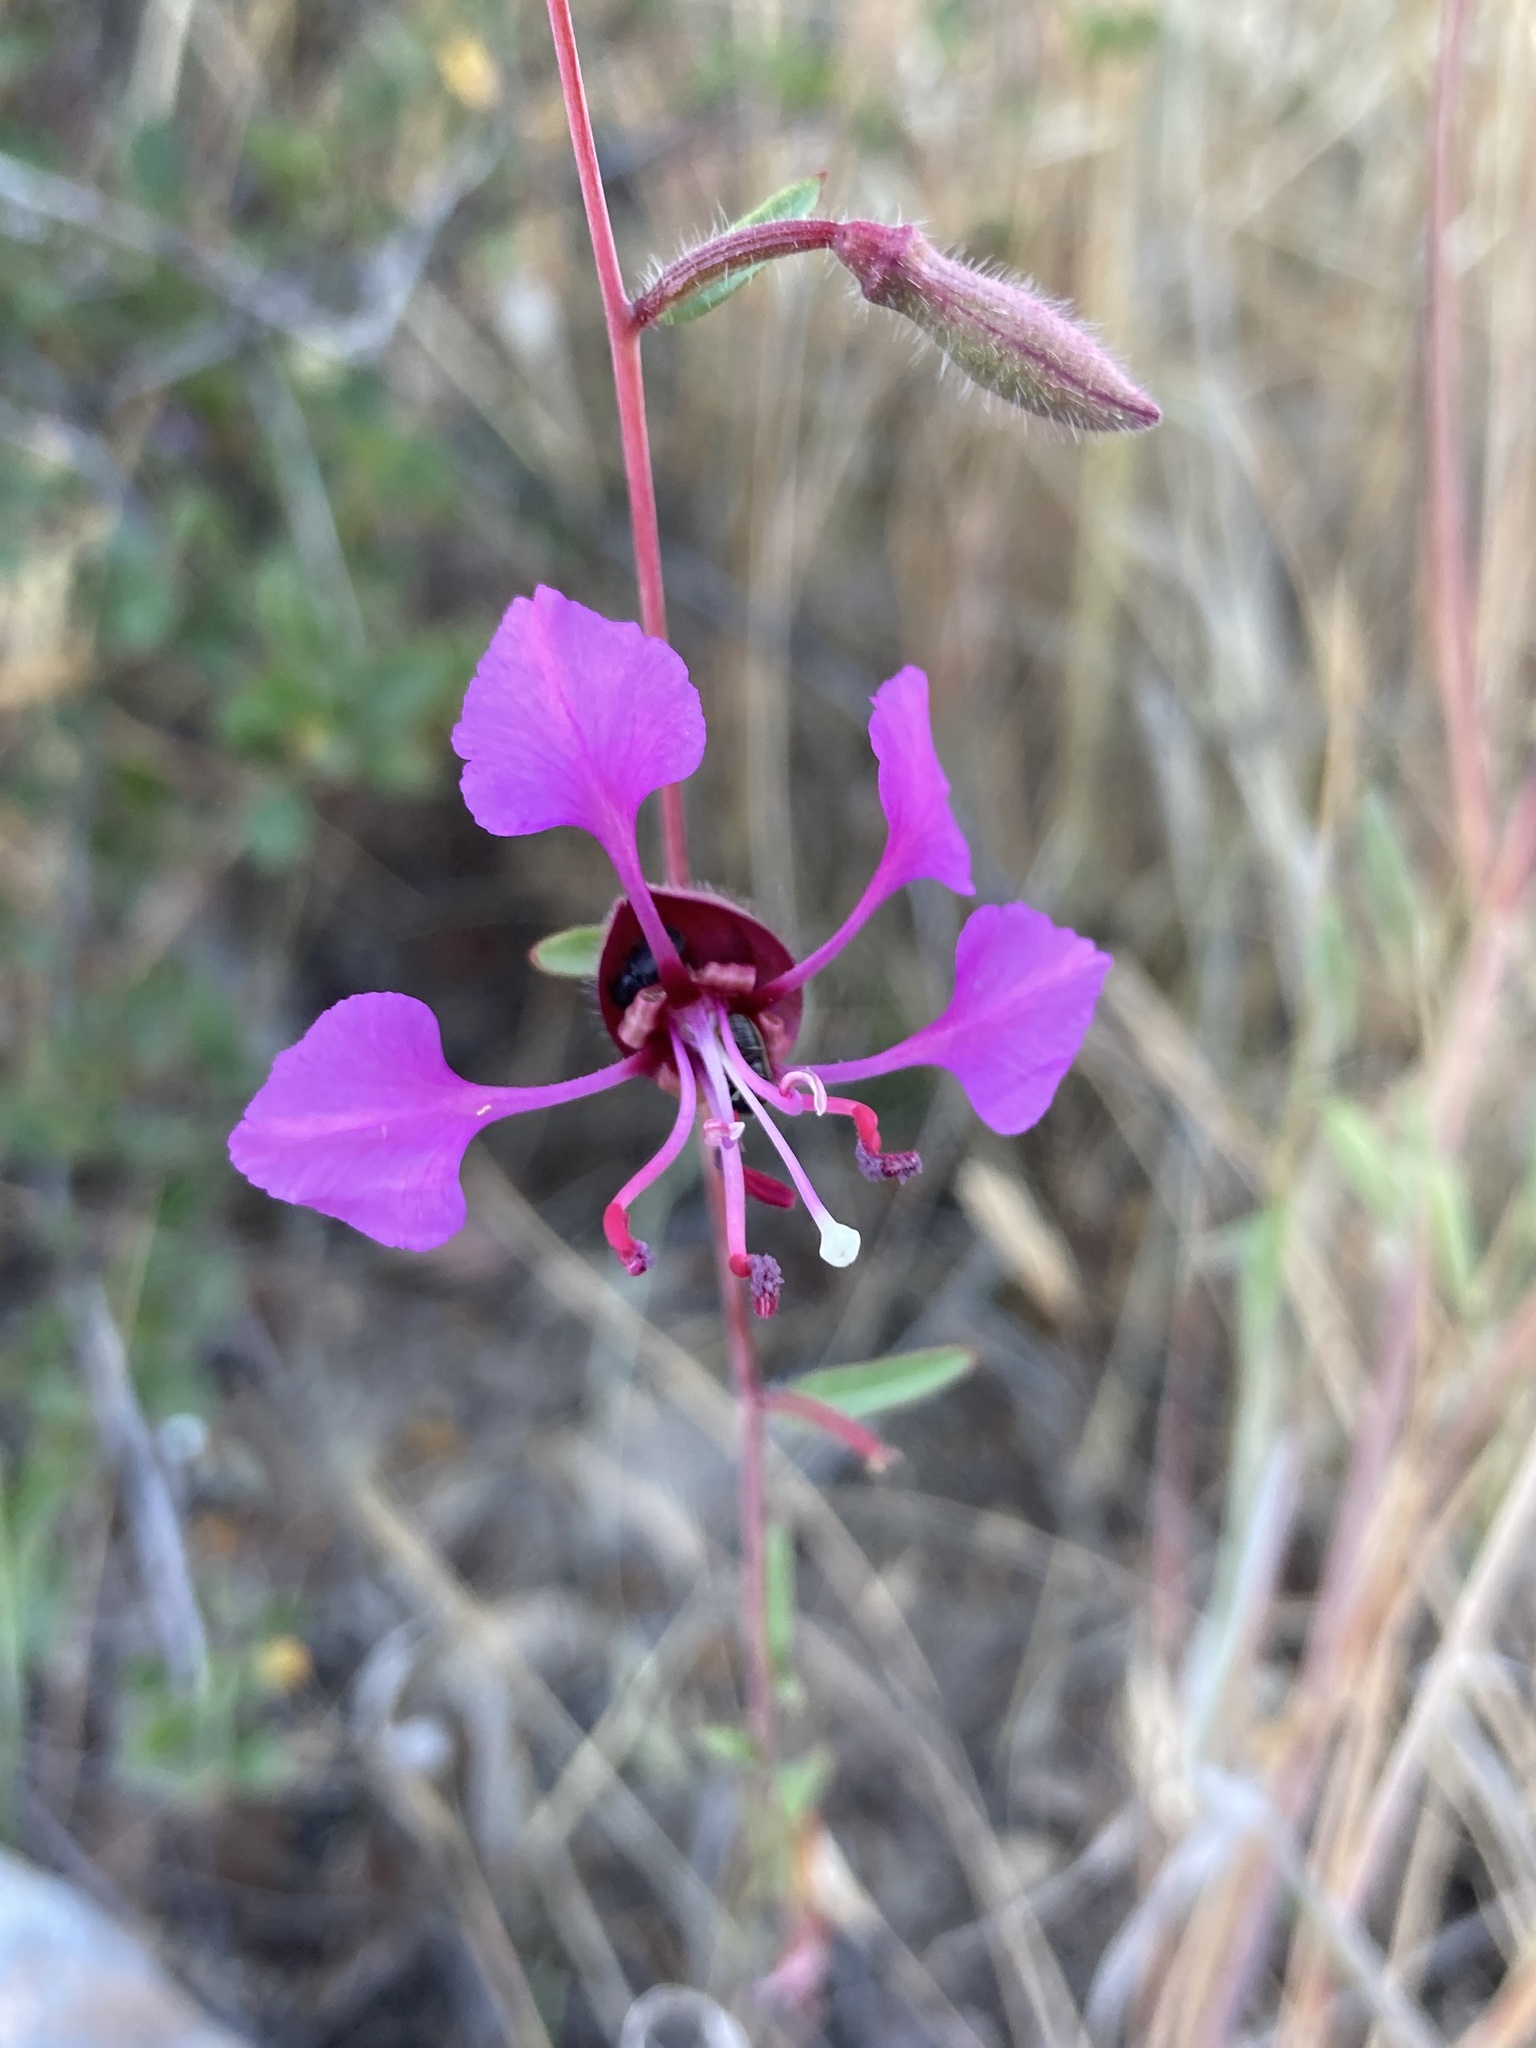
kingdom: Plantae
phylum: Tracheophyta
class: Magnoliopsida
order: Myrtales
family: Onagraceae
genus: Clarkia
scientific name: Clarkia unguiculata
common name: Clarkia
